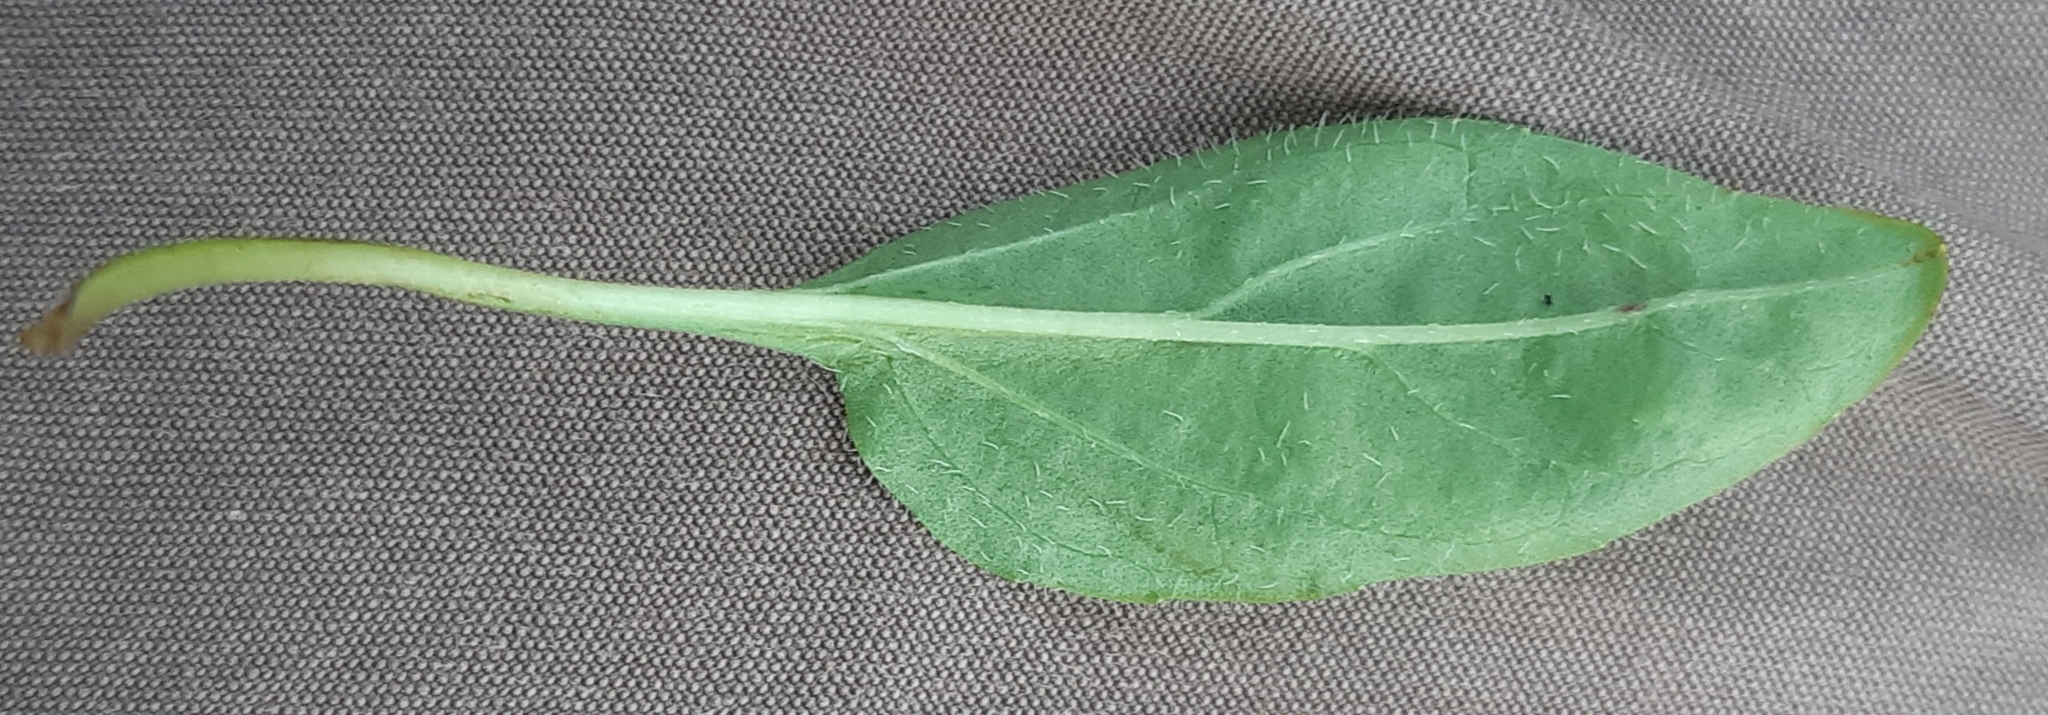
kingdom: Plantae
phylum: Tracheophyta
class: Magnoliopsida
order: Lamiales
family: Lamiaceae
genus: Prunella
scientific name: Prunella grandiflora
